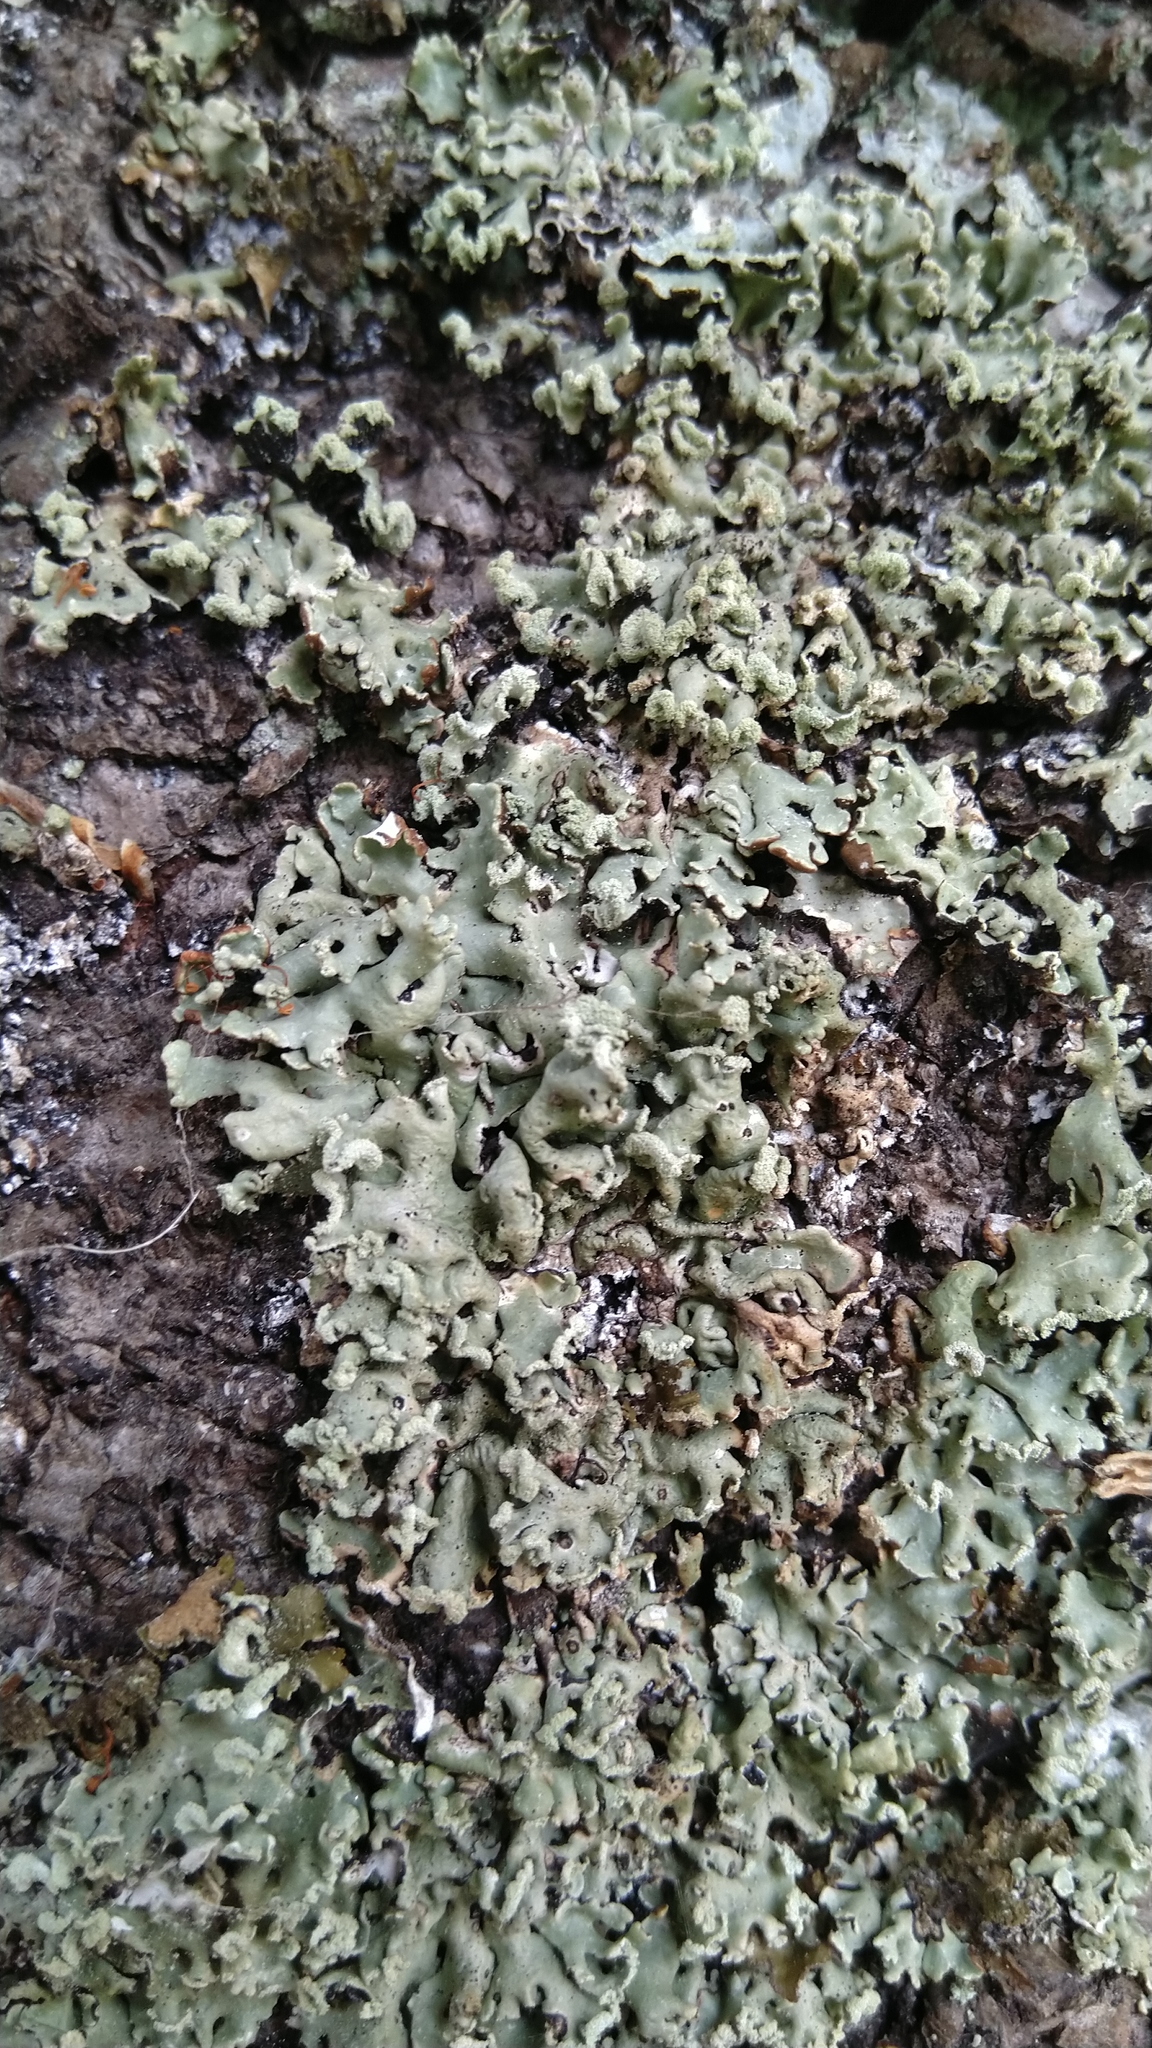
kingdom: Fungi
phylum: Ascomycota
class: Lecanoromycetes
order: Lecanorales
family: Parmeliaceae
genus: Hypogymnia
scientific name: Hypogymnia physodes
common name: Dark crottle
